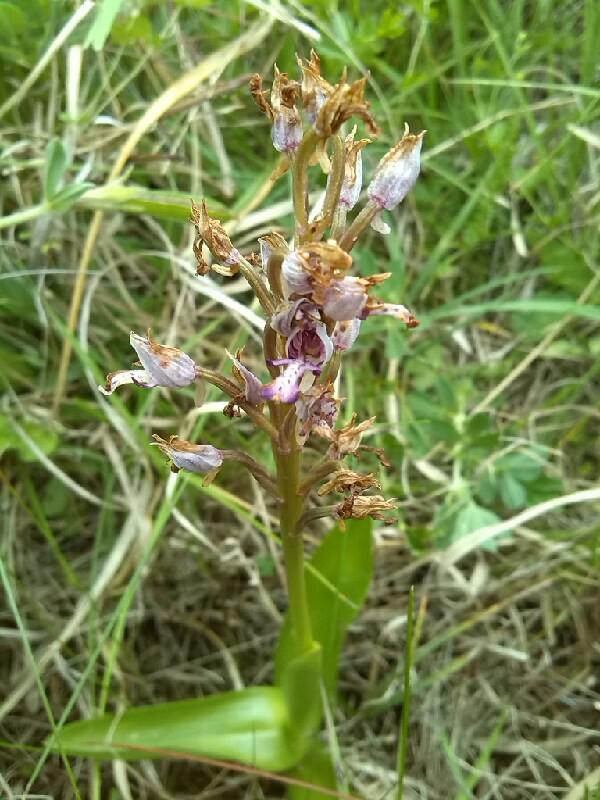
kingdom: Plantae
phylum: Tracheophyta
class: Liliopsida
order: Asparagales
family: Orchidaceae
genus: Orchis
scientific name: Orchis militaris
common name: Military orchid
